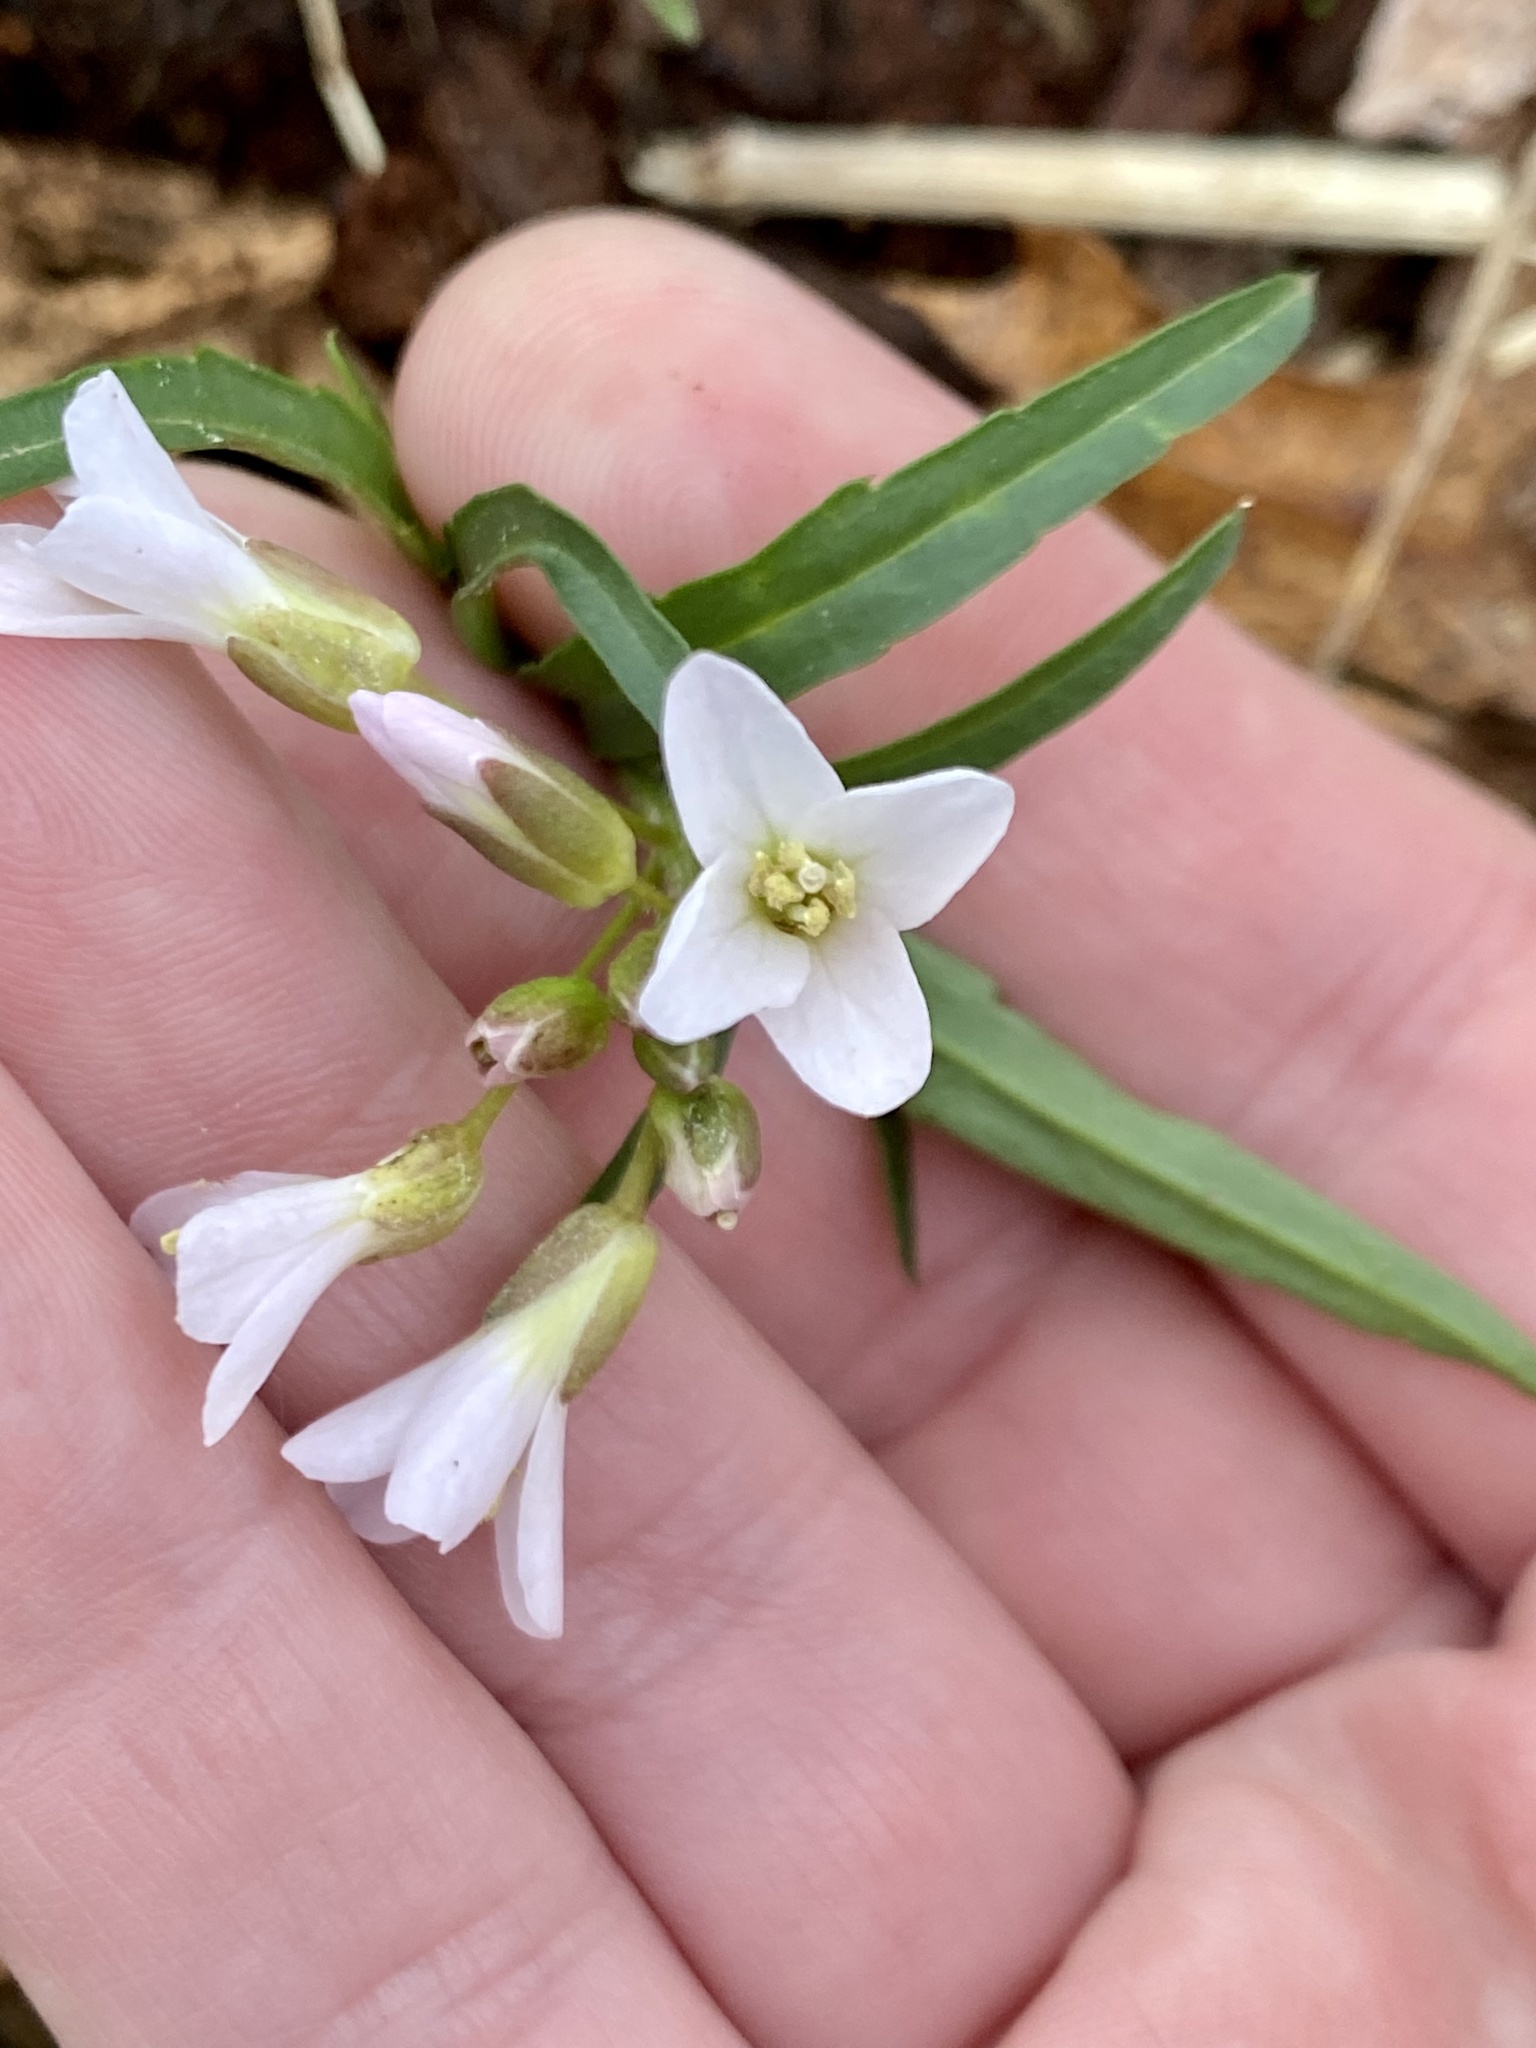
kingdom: Plantae
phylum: Tracheophyta
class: Magnoliopsida
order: Brassicales
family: Brassicaceae
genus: Cardamine
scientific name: Cardamine concatenata
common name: Cut-leaf toothcup
